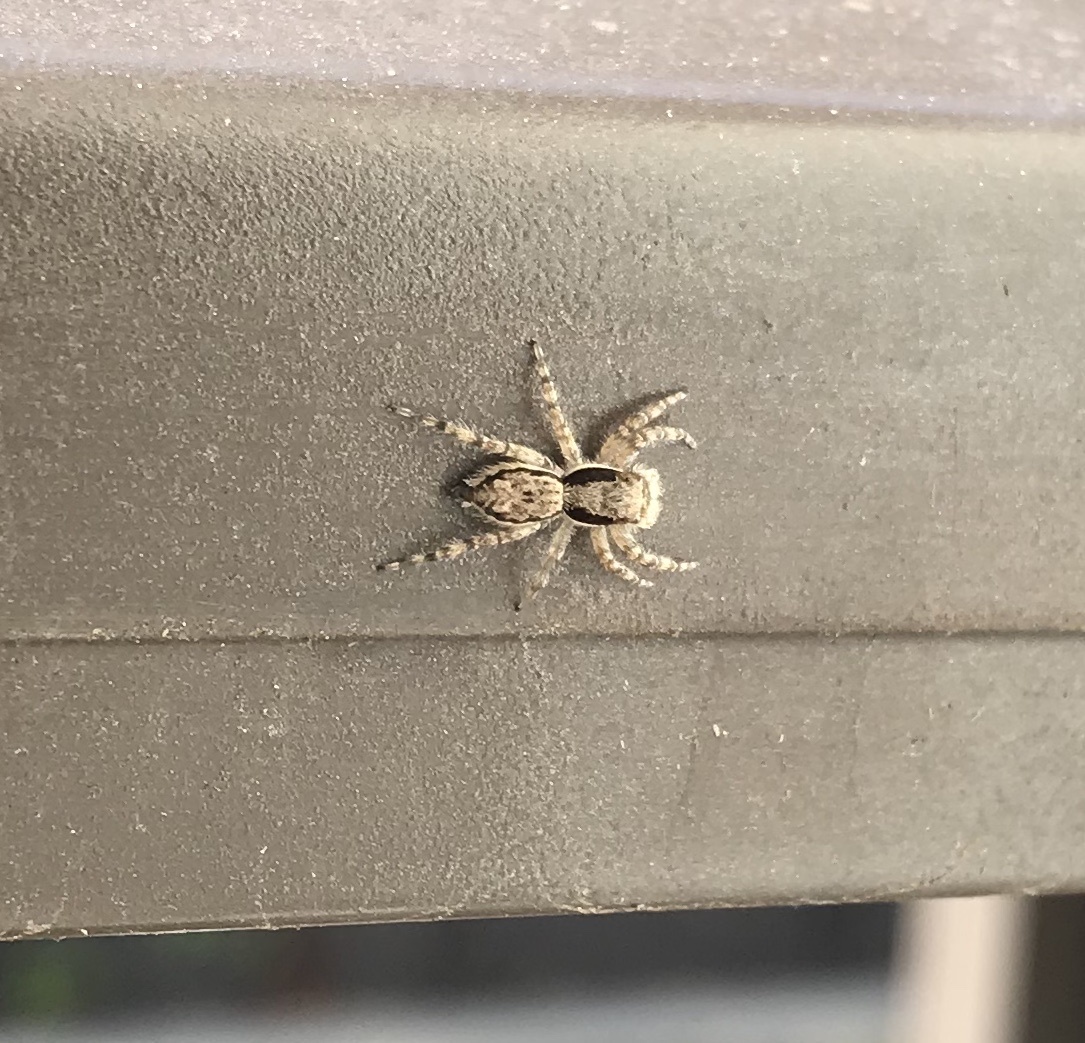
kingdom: Animalia
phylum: Arthropoda
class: Arachnida
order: Araneae
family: Salticidae
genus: Menemerus
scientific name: Menemerus bivittatus
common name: Gray wall jumper
